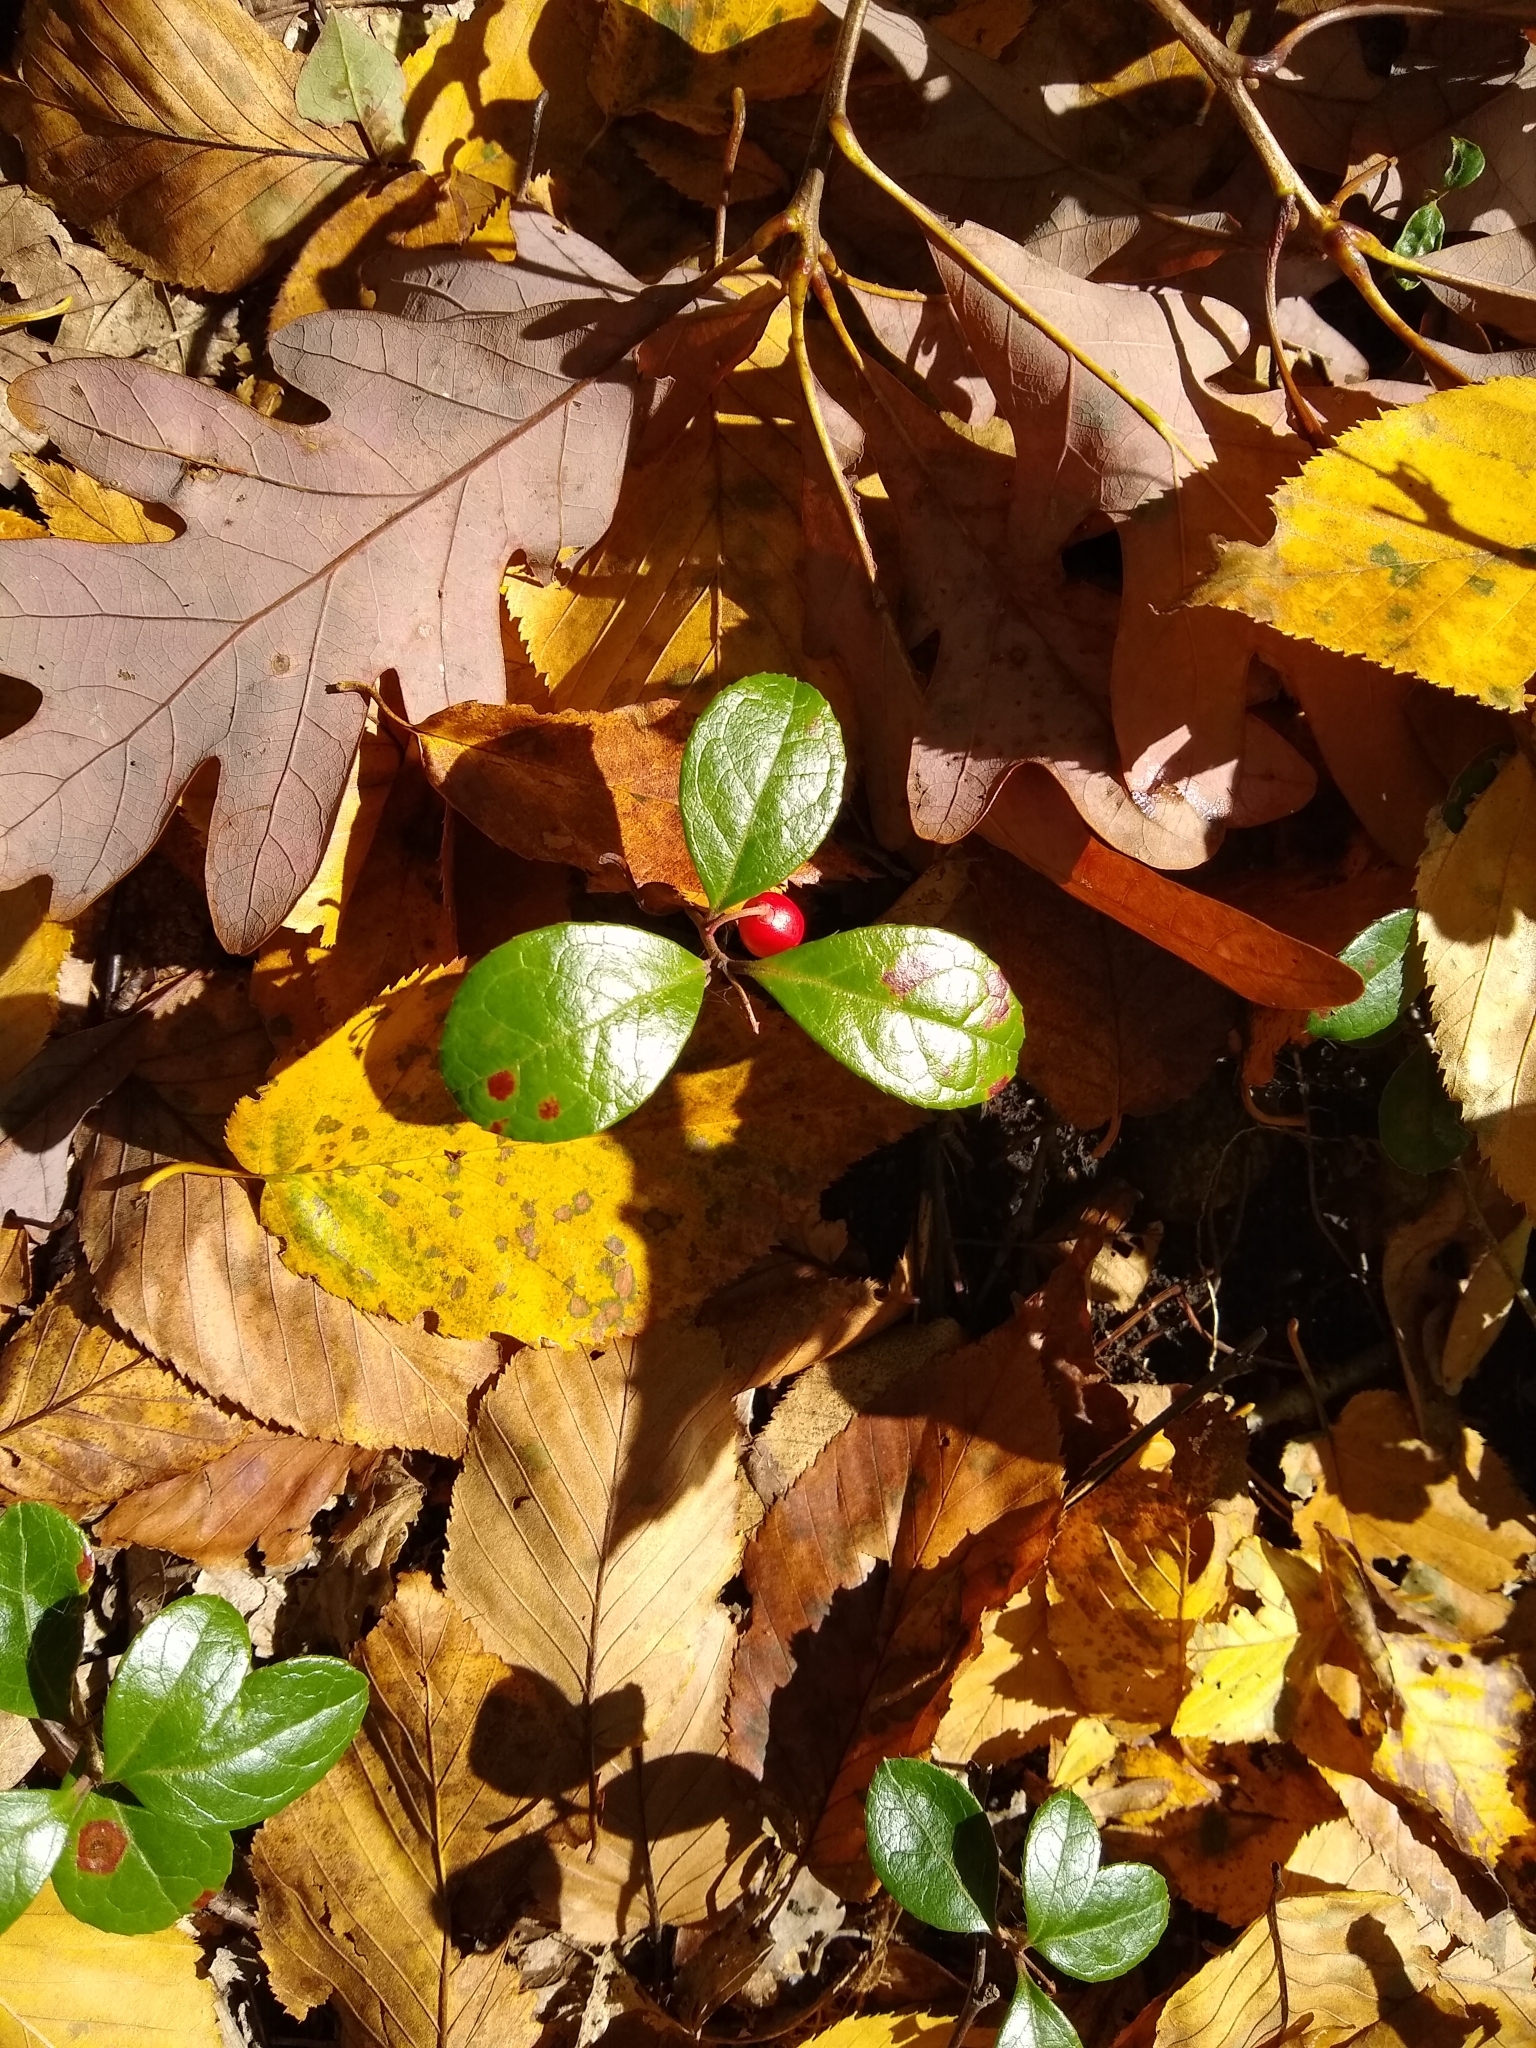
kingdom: Plantae
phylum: Tracheophyta
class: Magnoliopsida
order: Ericales
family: Ericaceae
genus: Gaultheria
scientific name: Gaultheria procumbens
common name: Checkerberry
